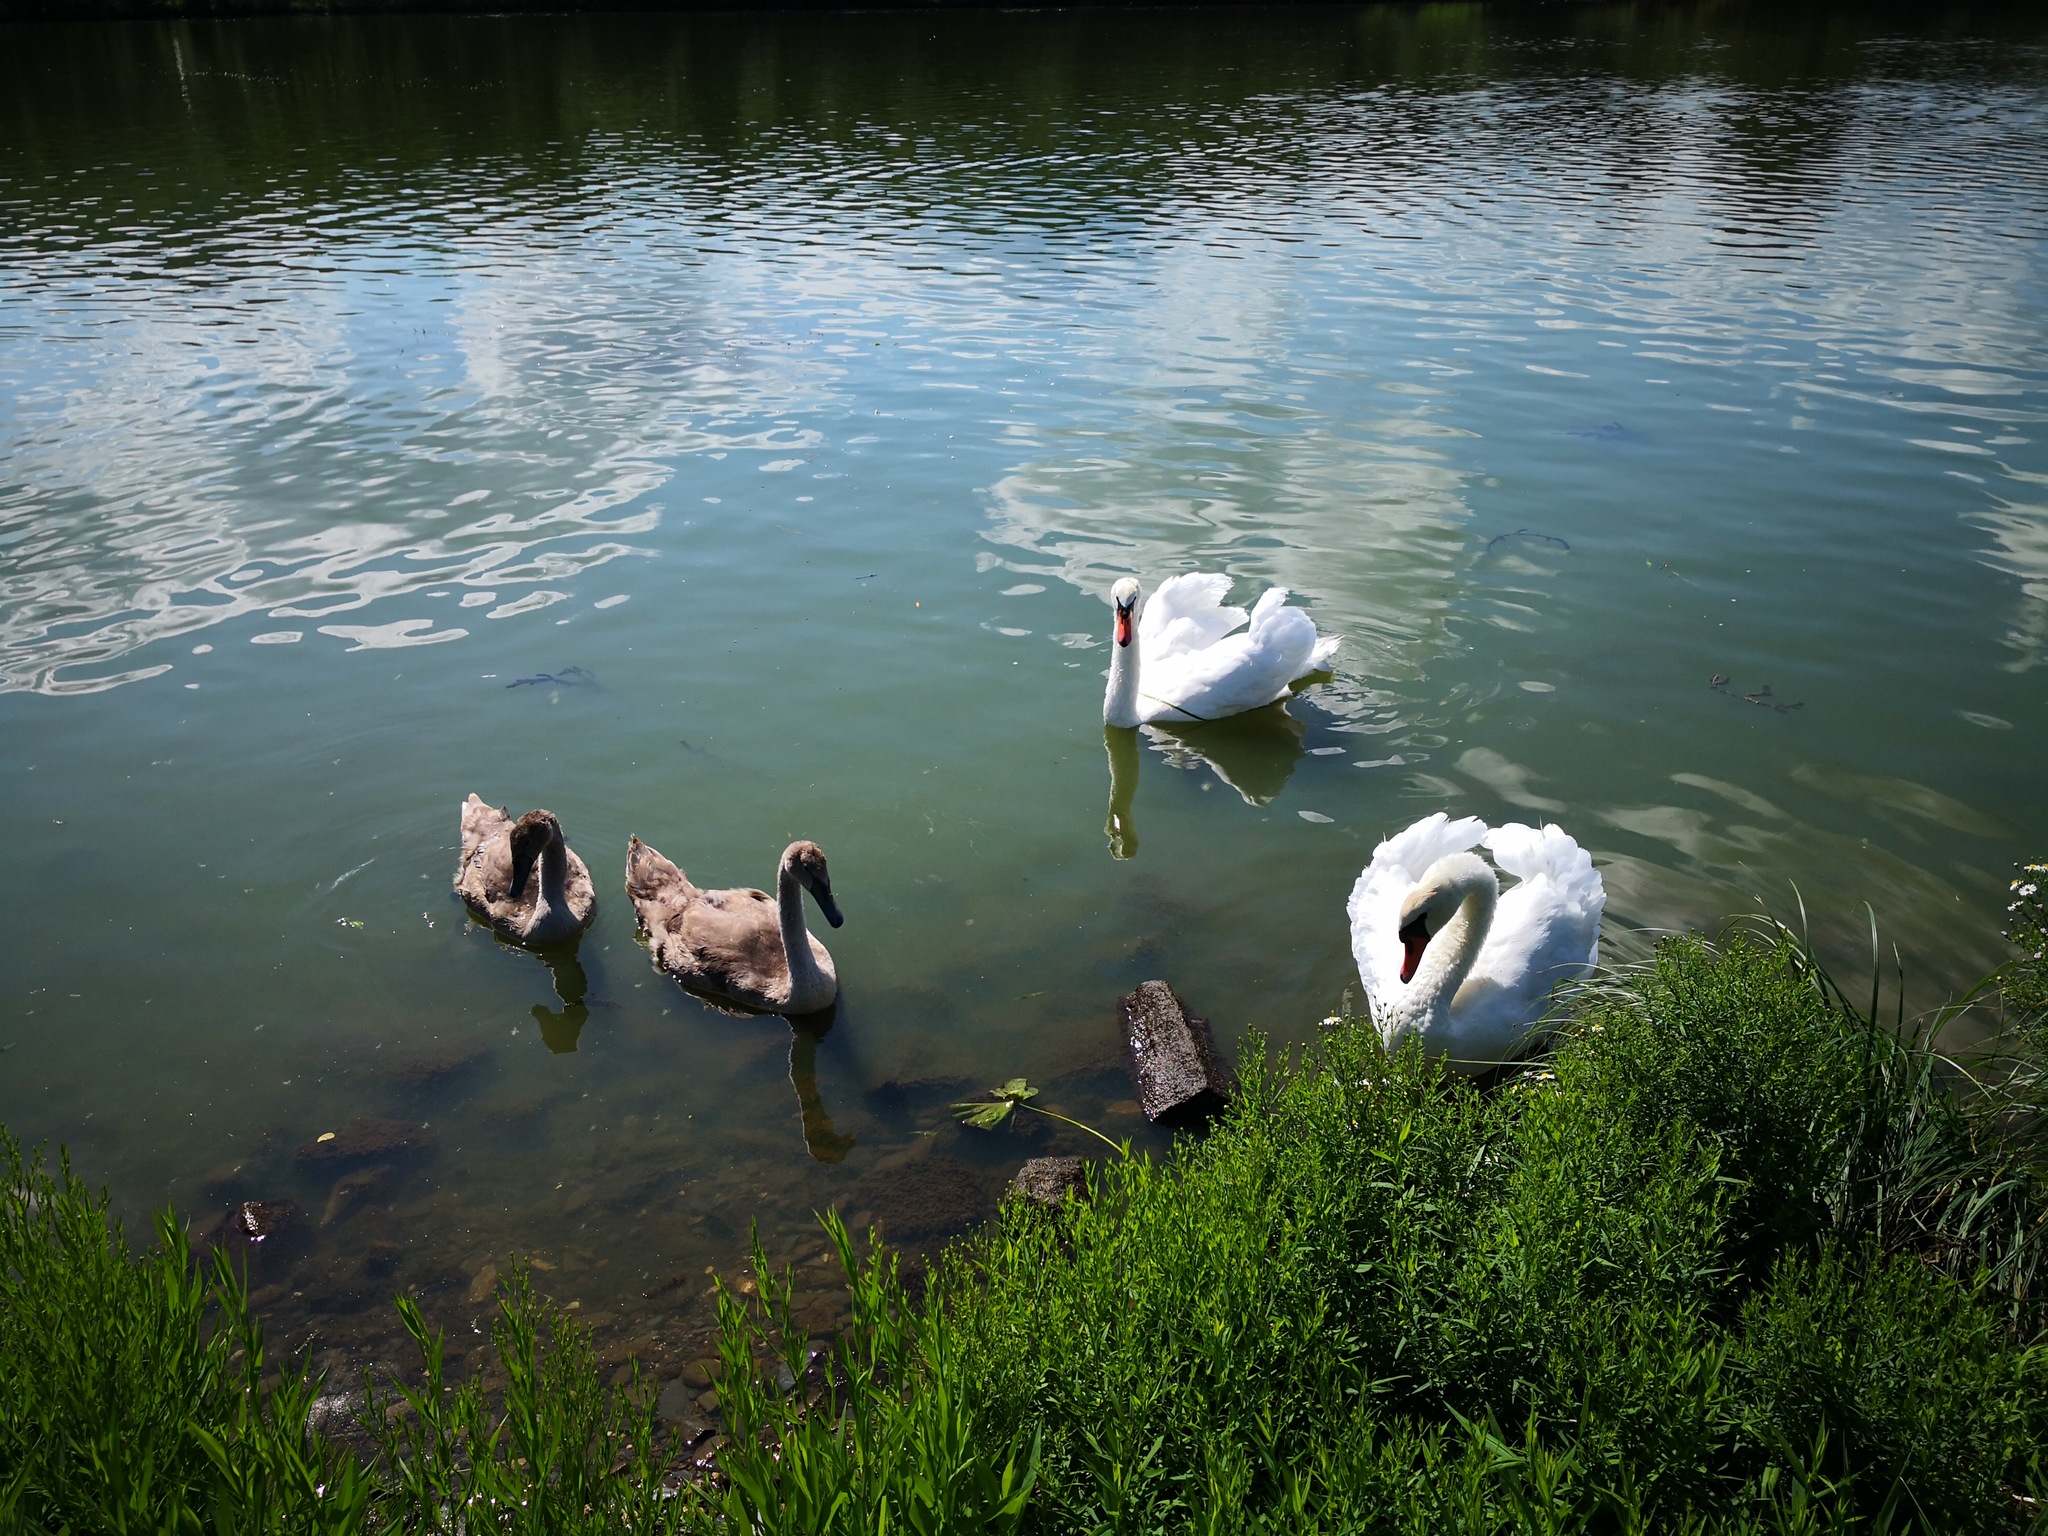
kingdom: Animalia
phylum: Chordata
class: Aves
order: Anseriformes
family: Anatidae
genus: Cygnus
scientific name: Cygnus olor
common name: Mute swan
